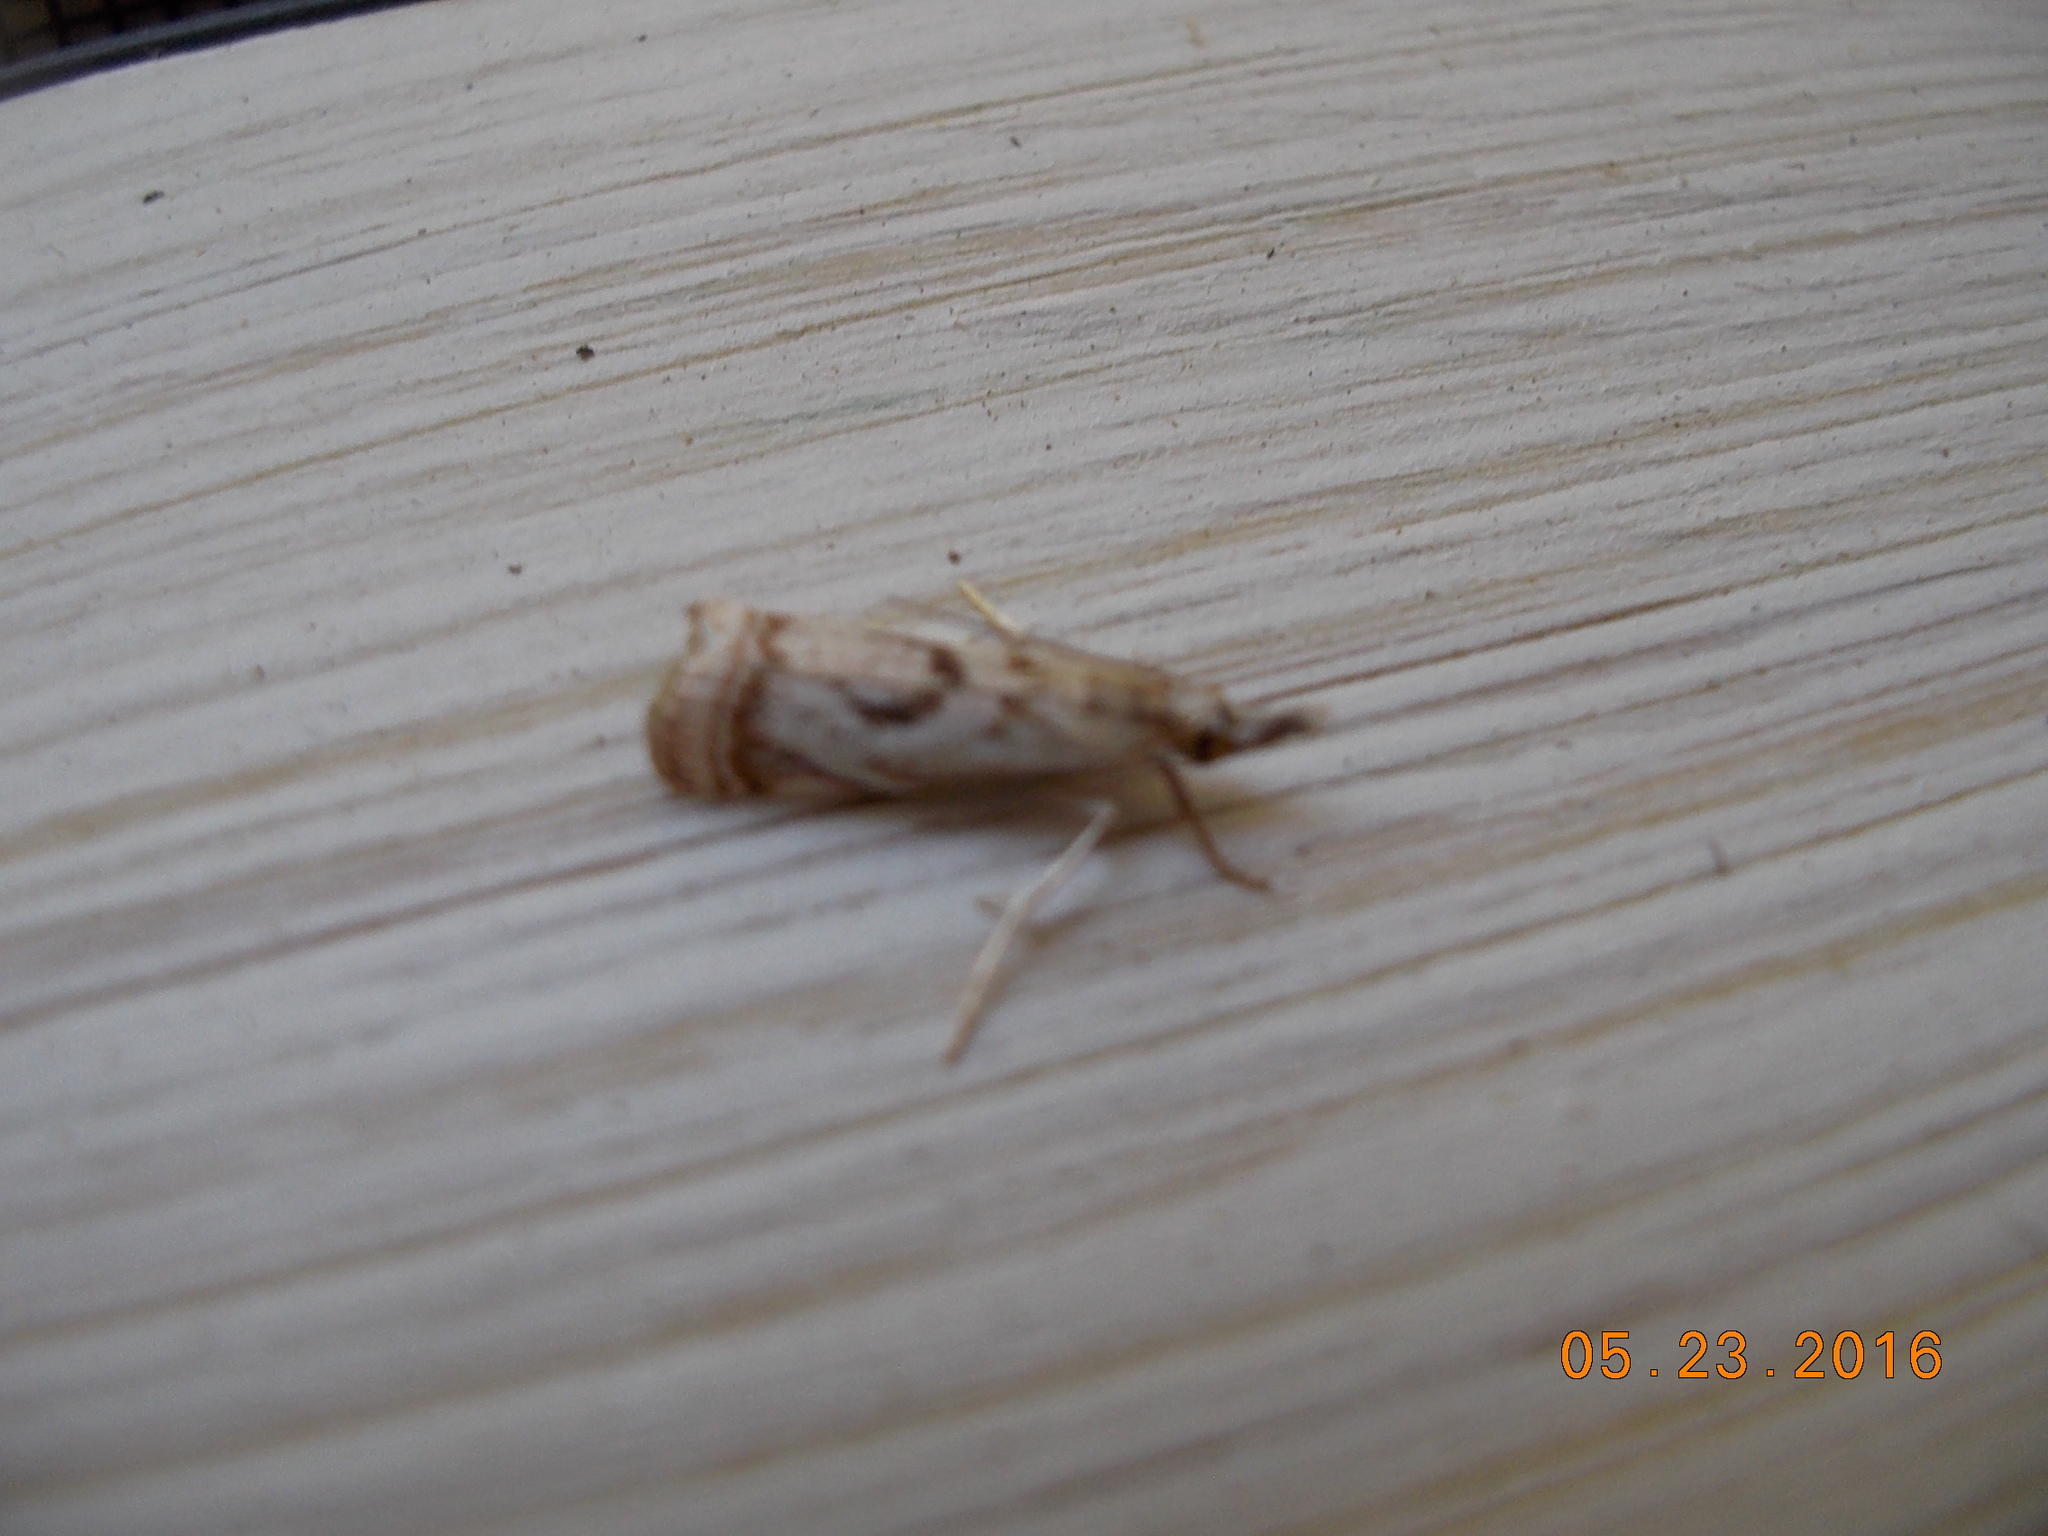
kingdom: Animalia
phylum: Arthropoda
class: Insecta
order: Lepidoptera
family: Crambidae
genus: Microcrambus
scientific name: Microcrambus elegans
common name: Elegant grass-veneer
